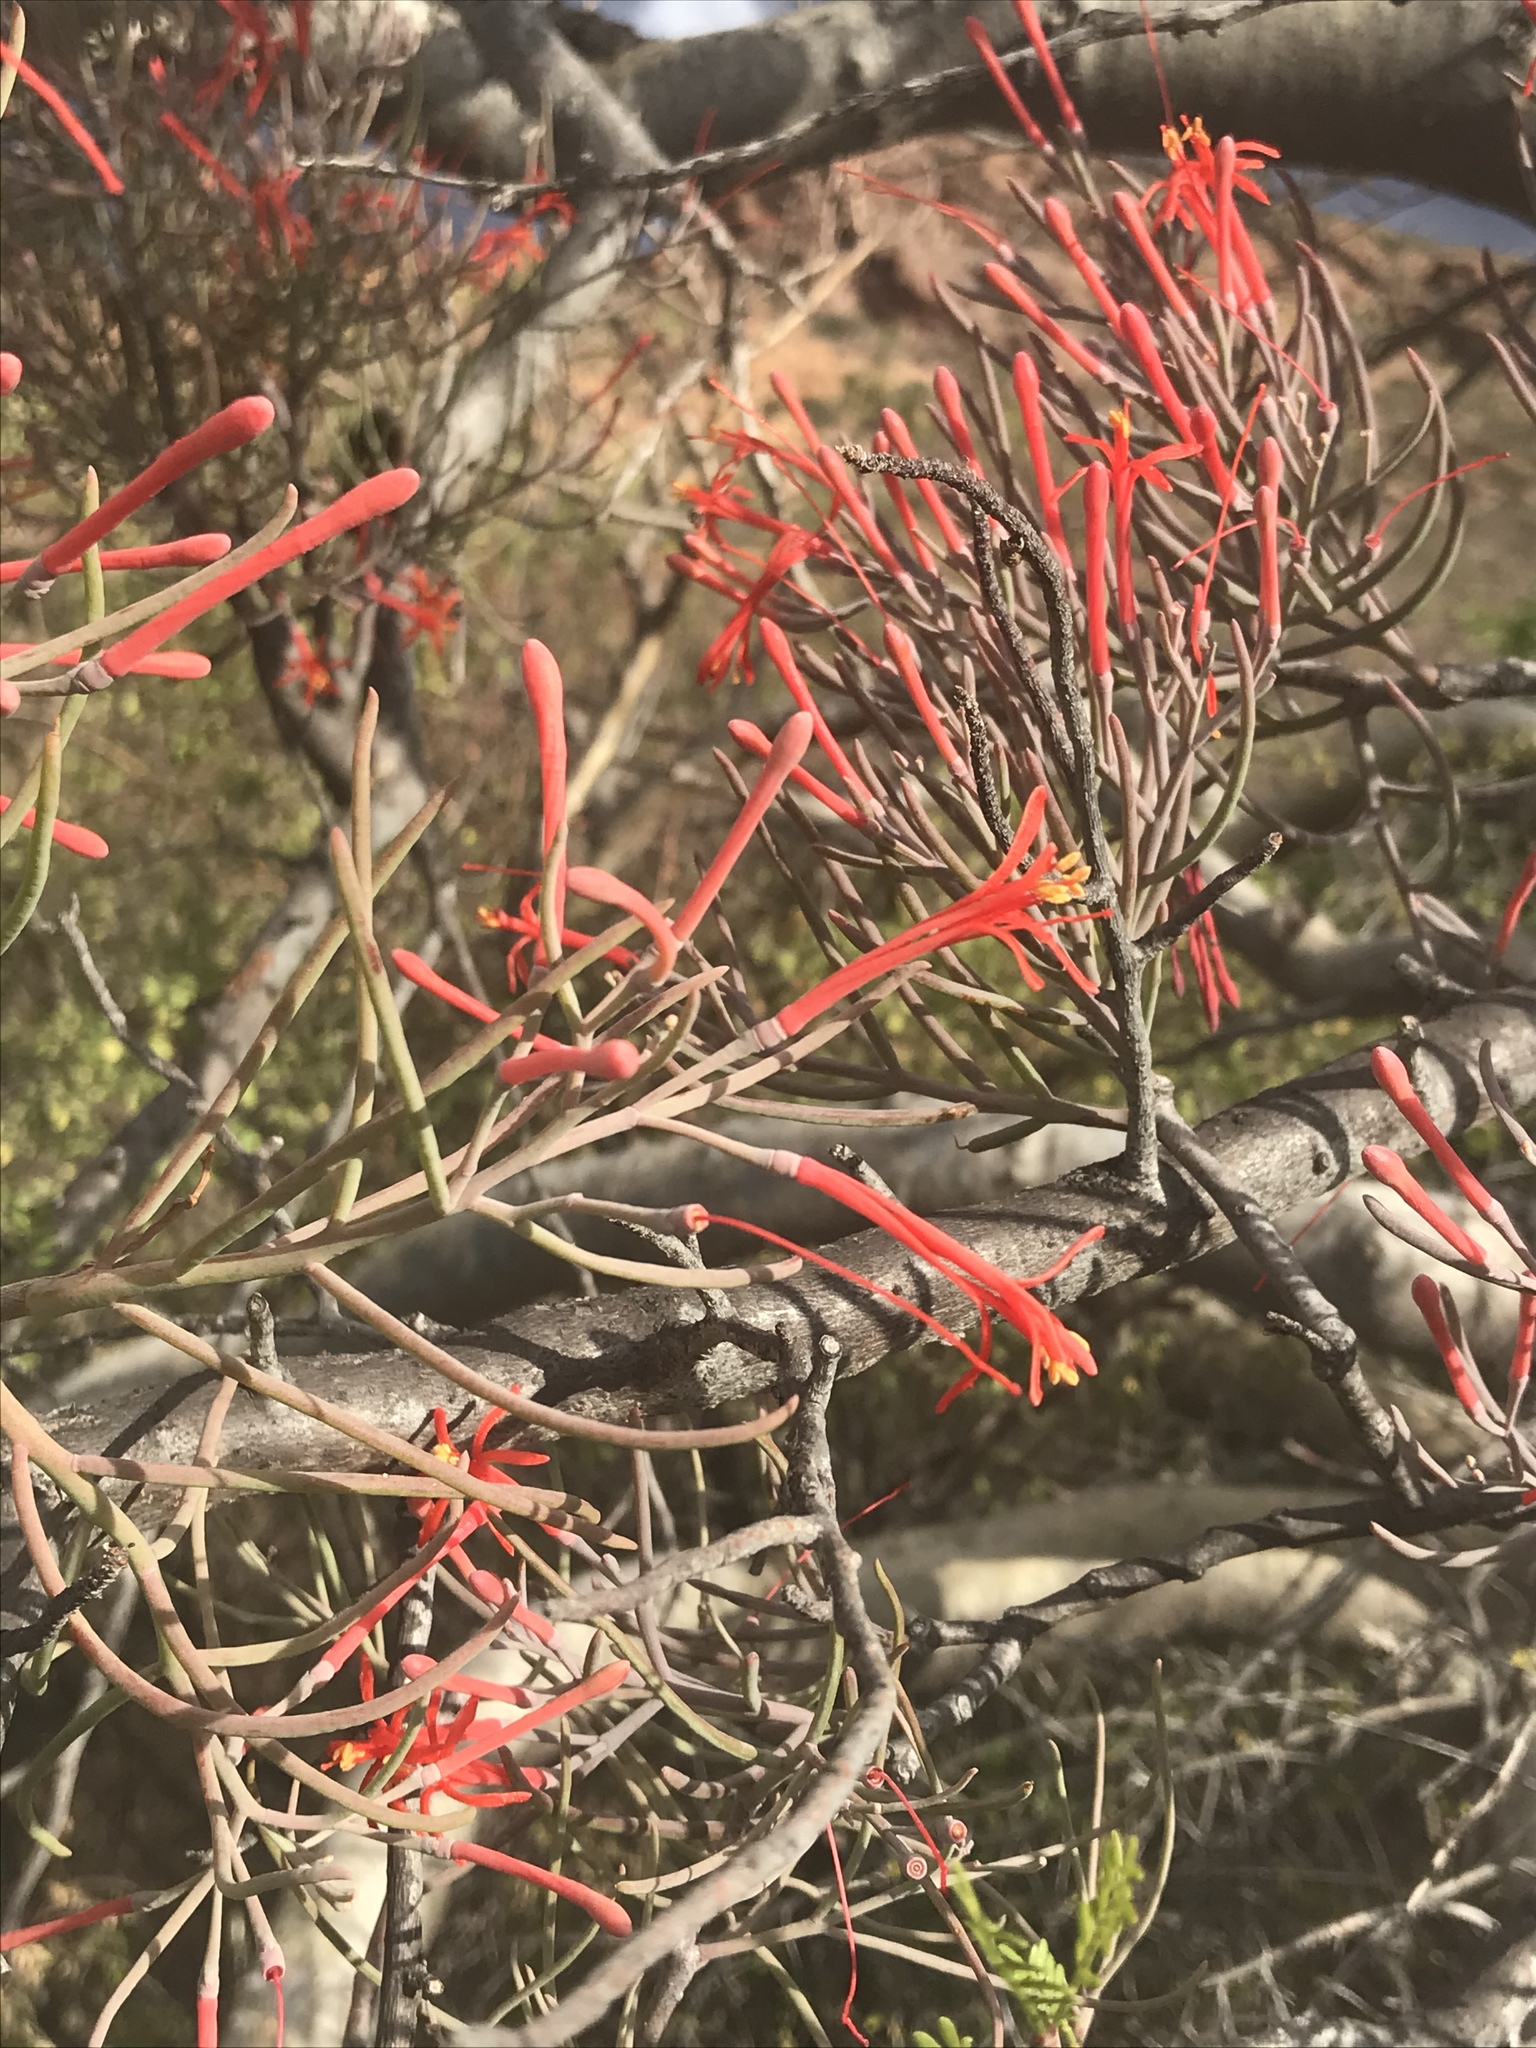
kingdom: Plantae
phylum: Tracheophyta
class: Magnoliopsida
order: Santalales
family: Loranthaceae
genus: Psittacanthus
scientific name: Psittacanthus sonorae
